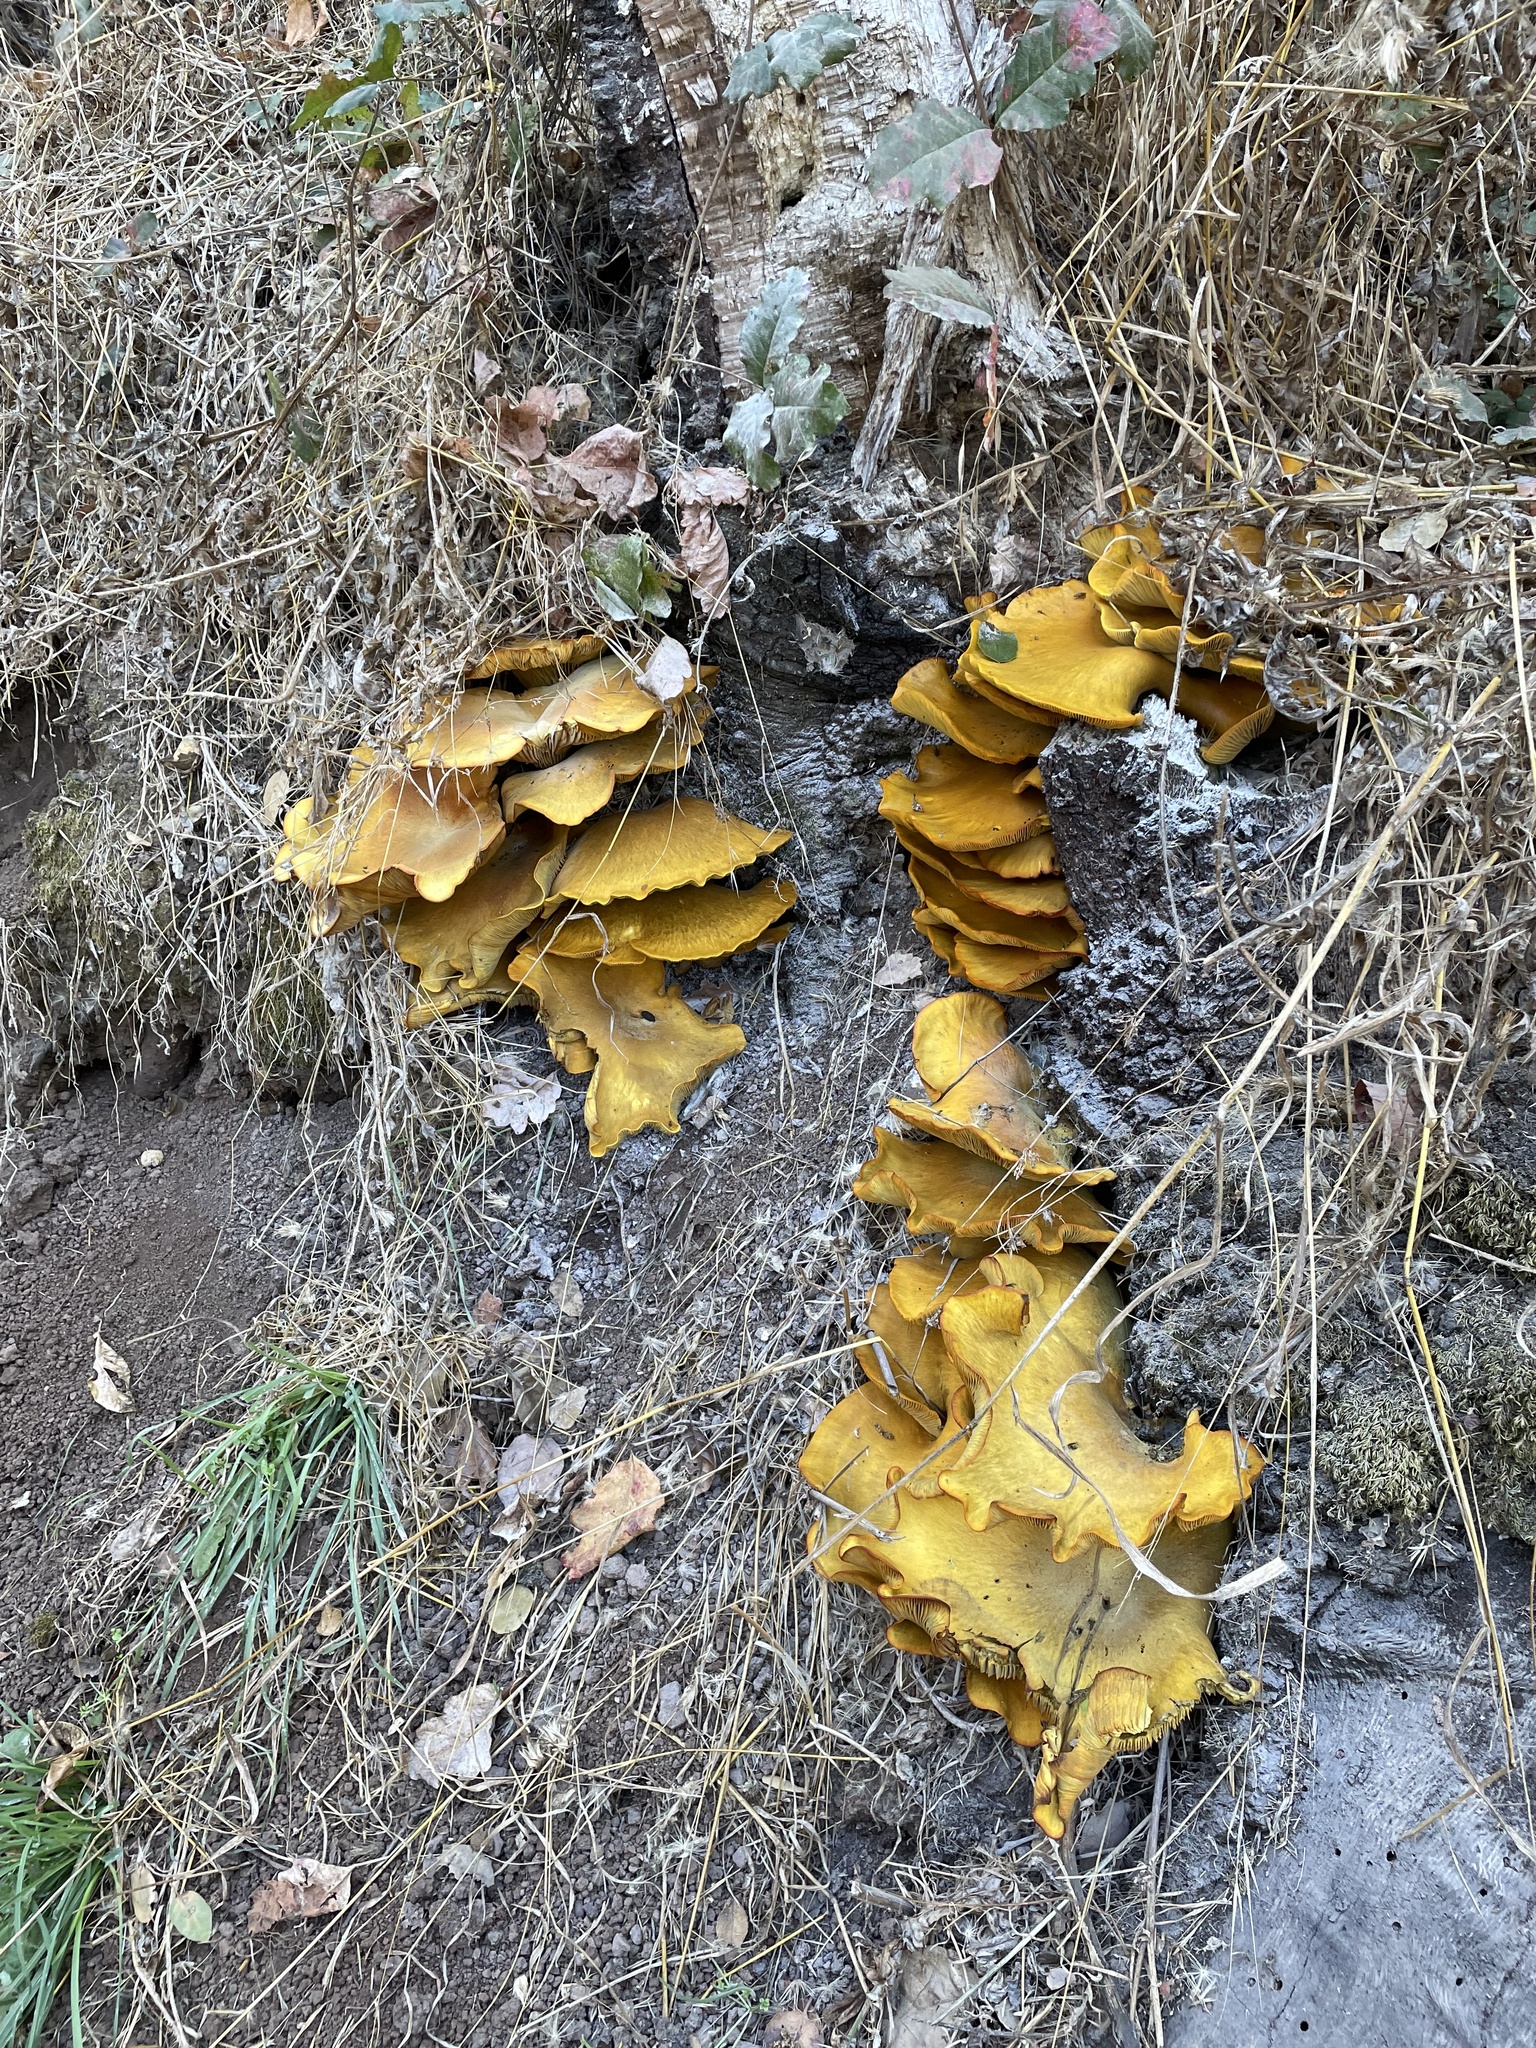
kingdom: Fungi
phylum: Basidiomycota
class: Agaricomycetes
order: Agaricales
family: Omphalotaceae
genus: Omphalotus
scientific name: Omphalotus olivascens
